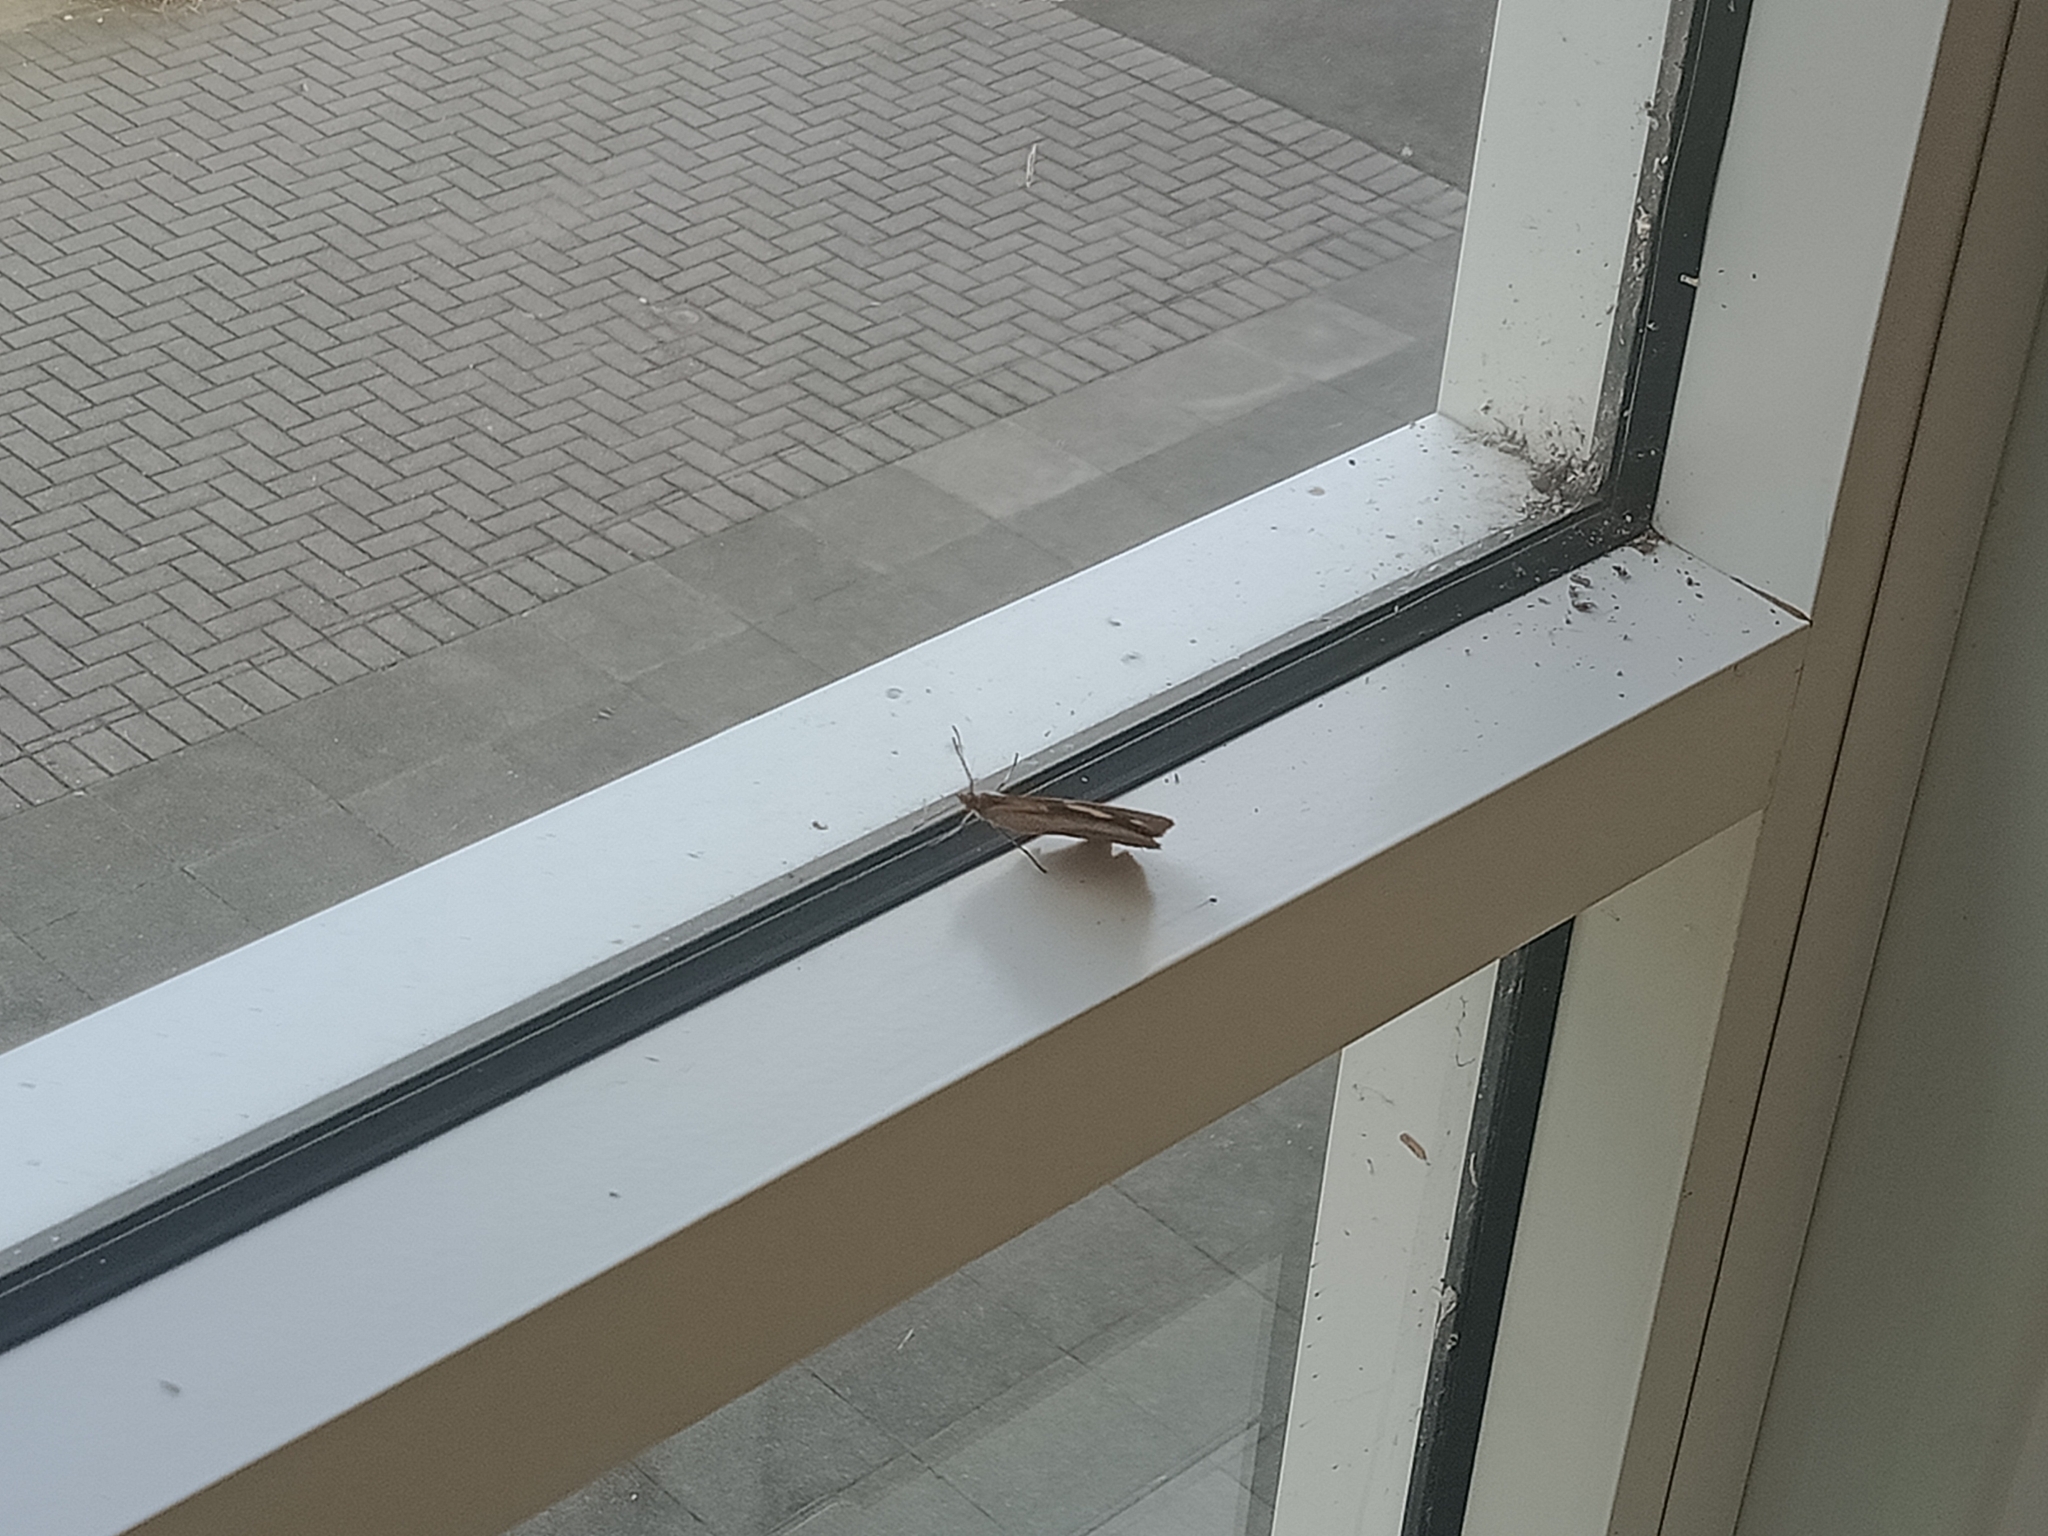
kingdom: Animalia
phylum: Arthropoda
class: Insecta
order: Lepidoptera
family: Nymphalidae
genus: Heteronympha
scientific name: Heteronympha merope
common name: Common brown
